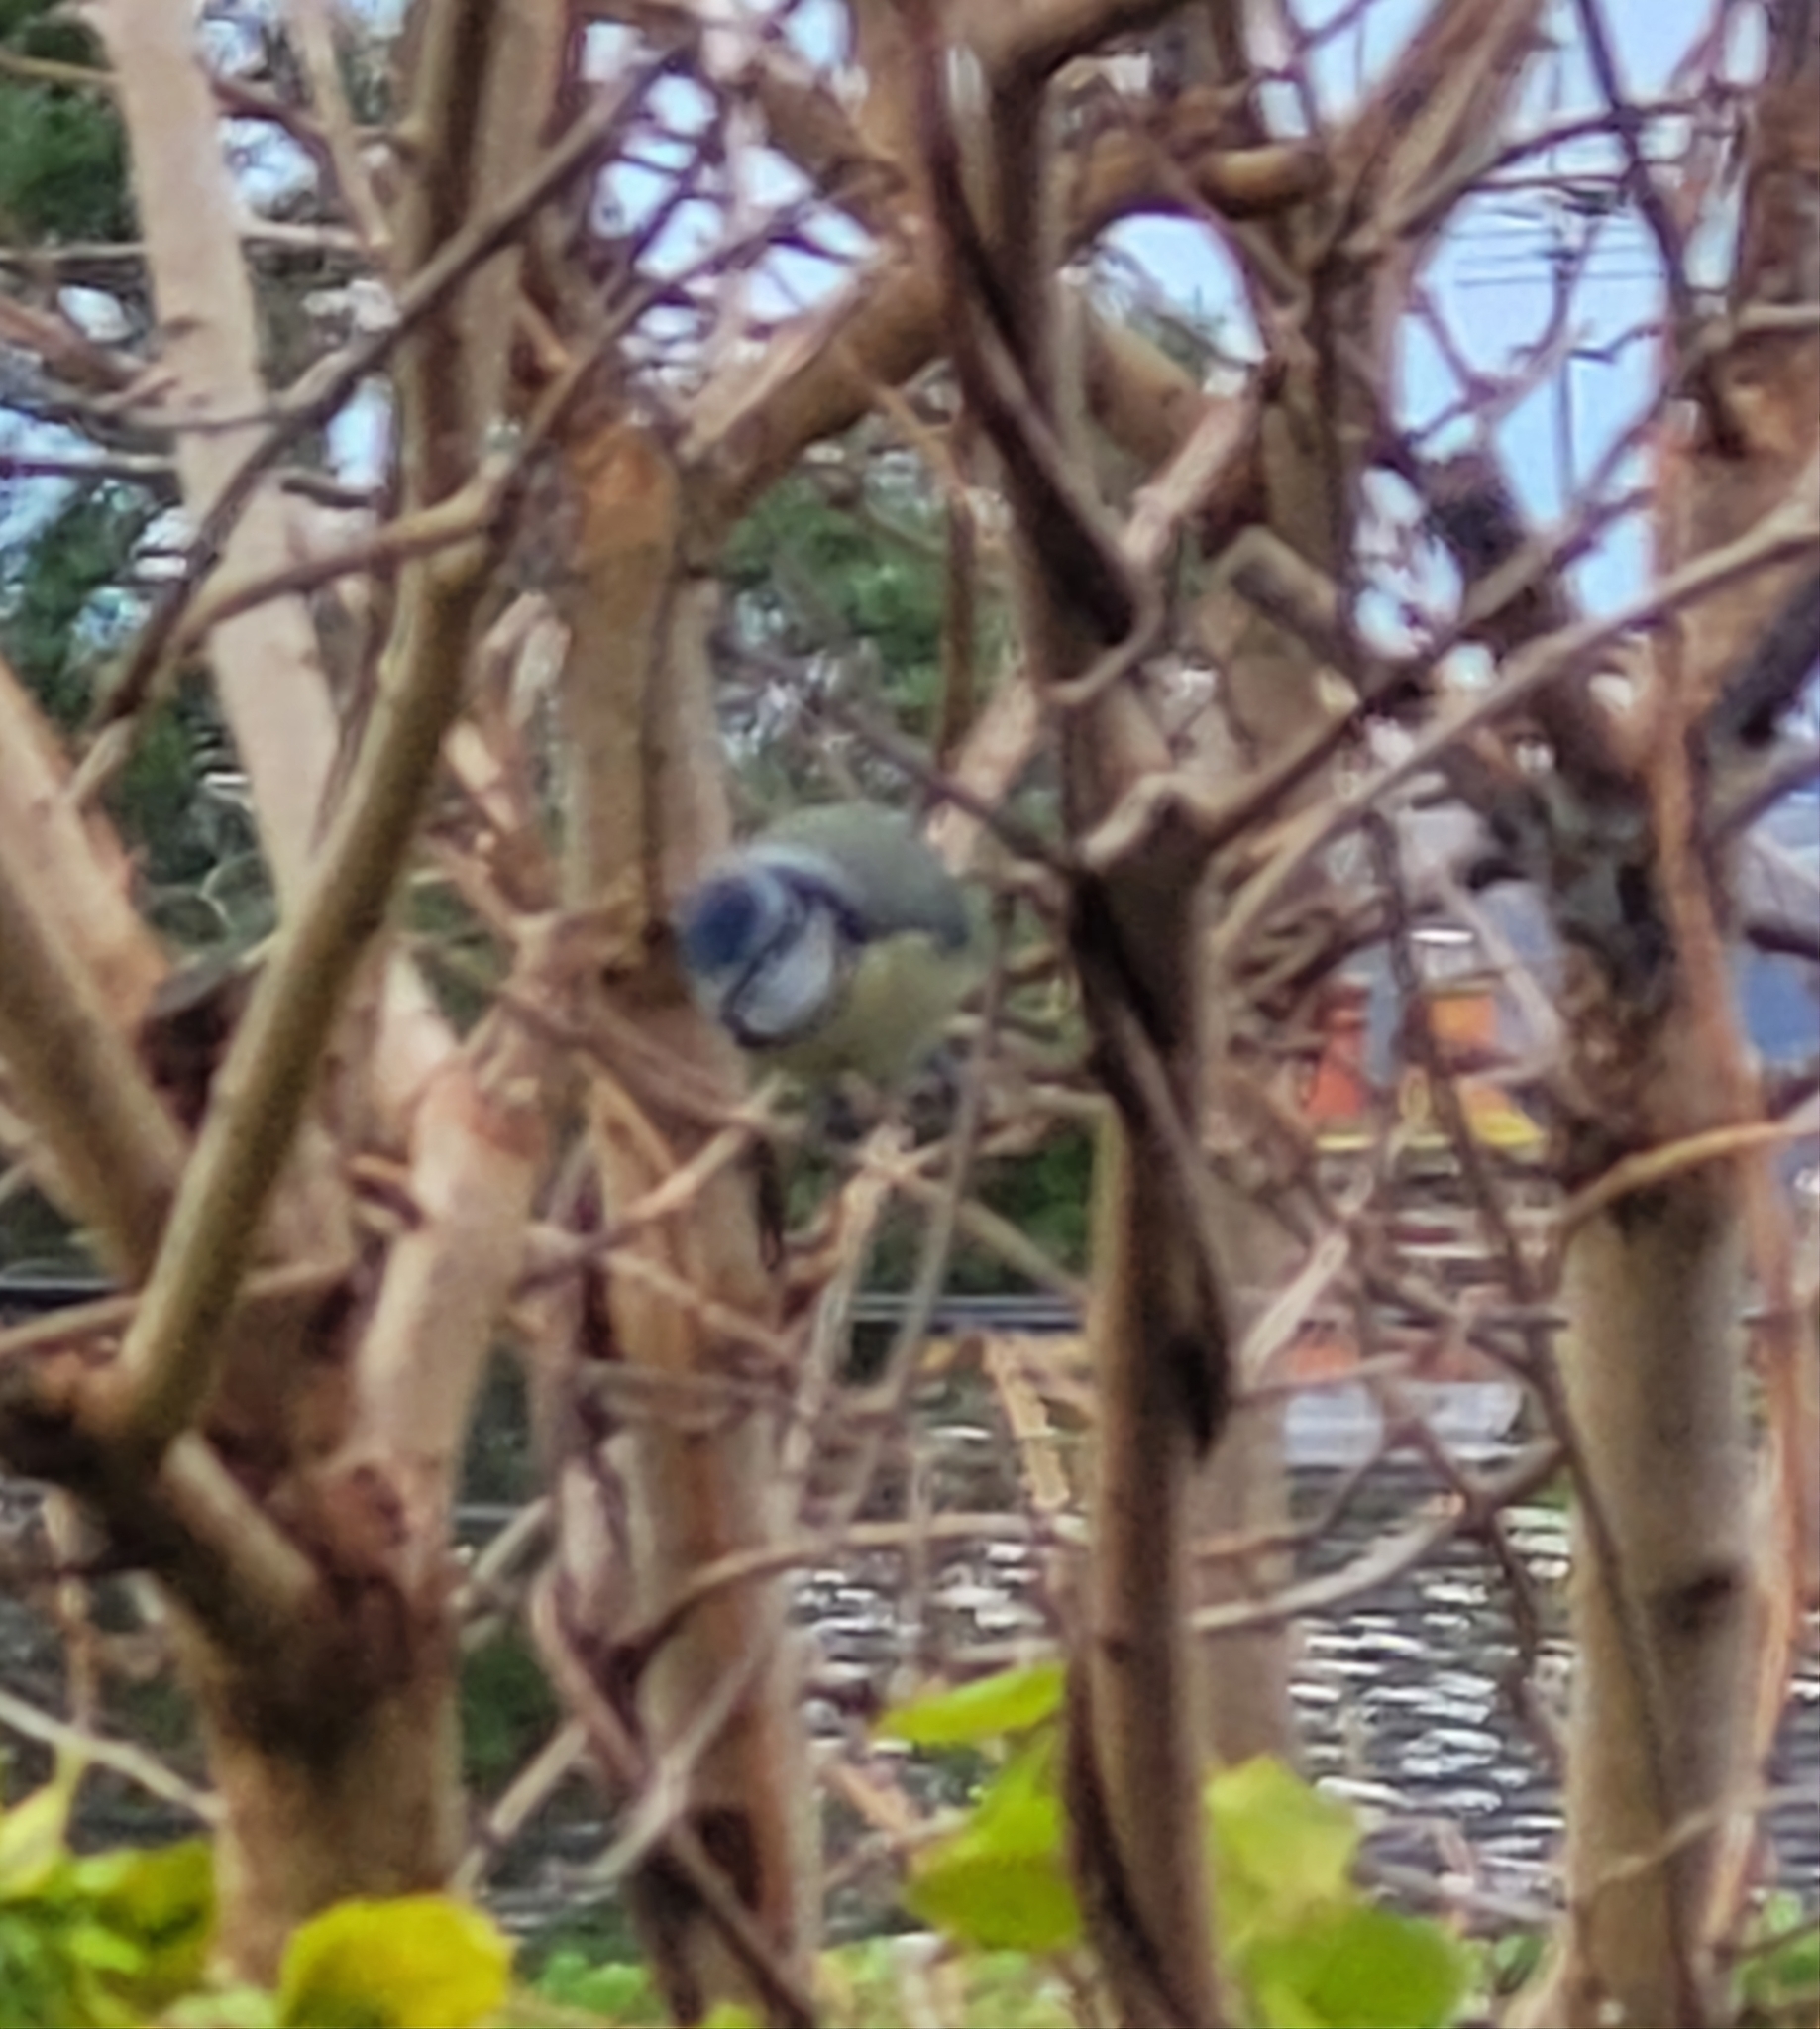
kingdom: Animalia
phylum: Chordata
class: Aves
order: Passeriformes
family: Paridae
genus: Cyanistes
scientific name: Cyanistes caeruleus
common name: Eurasian blue tit
